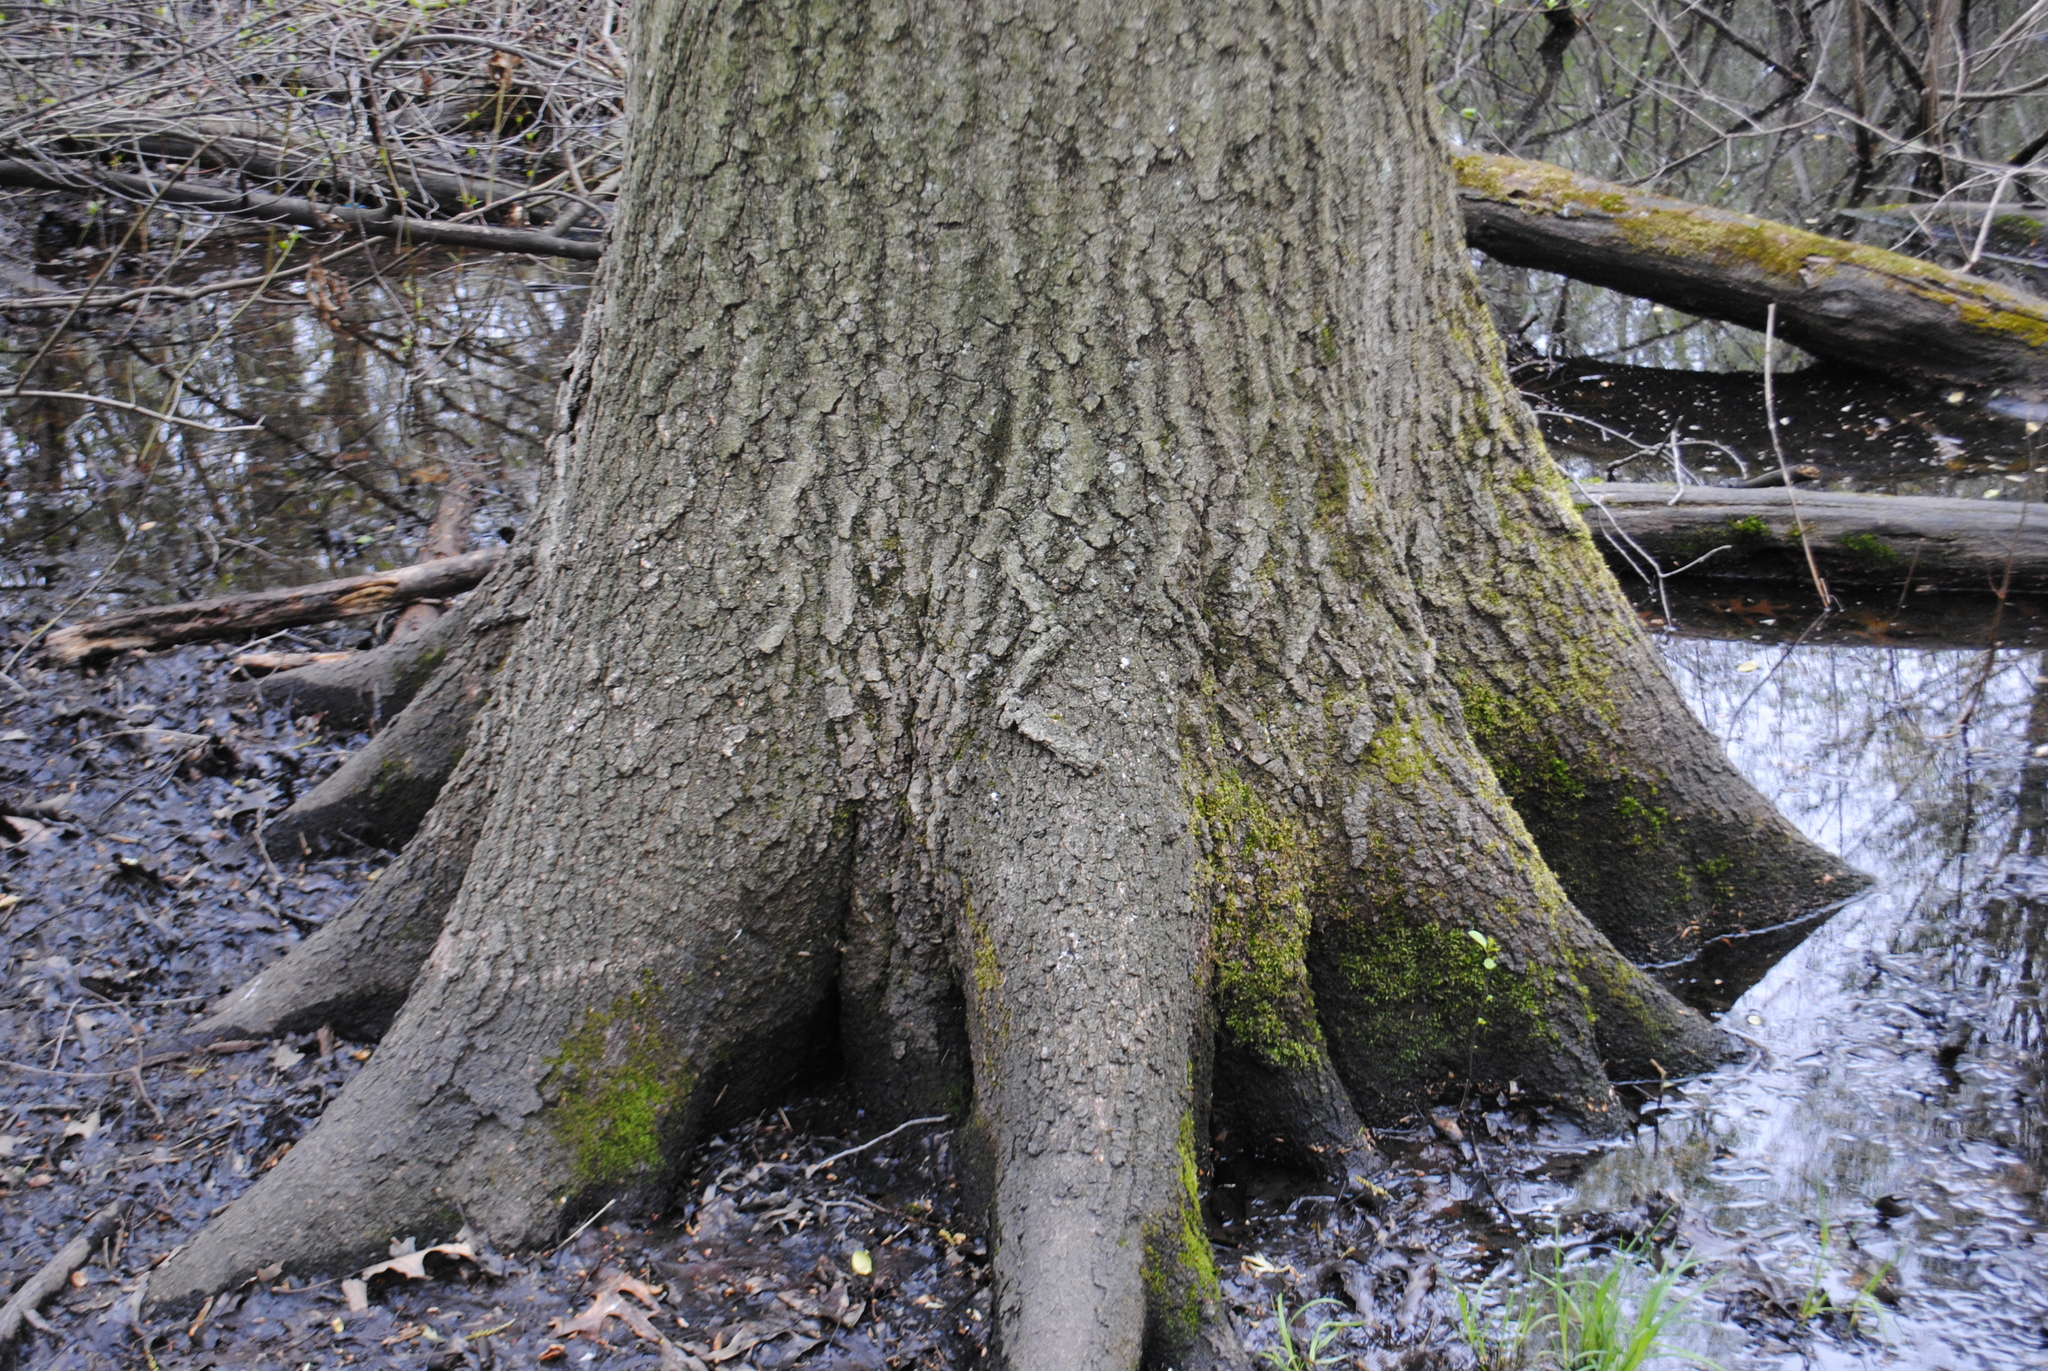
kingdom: Plantae
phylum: Tracheophyta
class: Magnoliopsida
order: Fagales
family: Fagaceae
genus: Quercus
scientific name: Quercus palustris
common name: Pin oak
